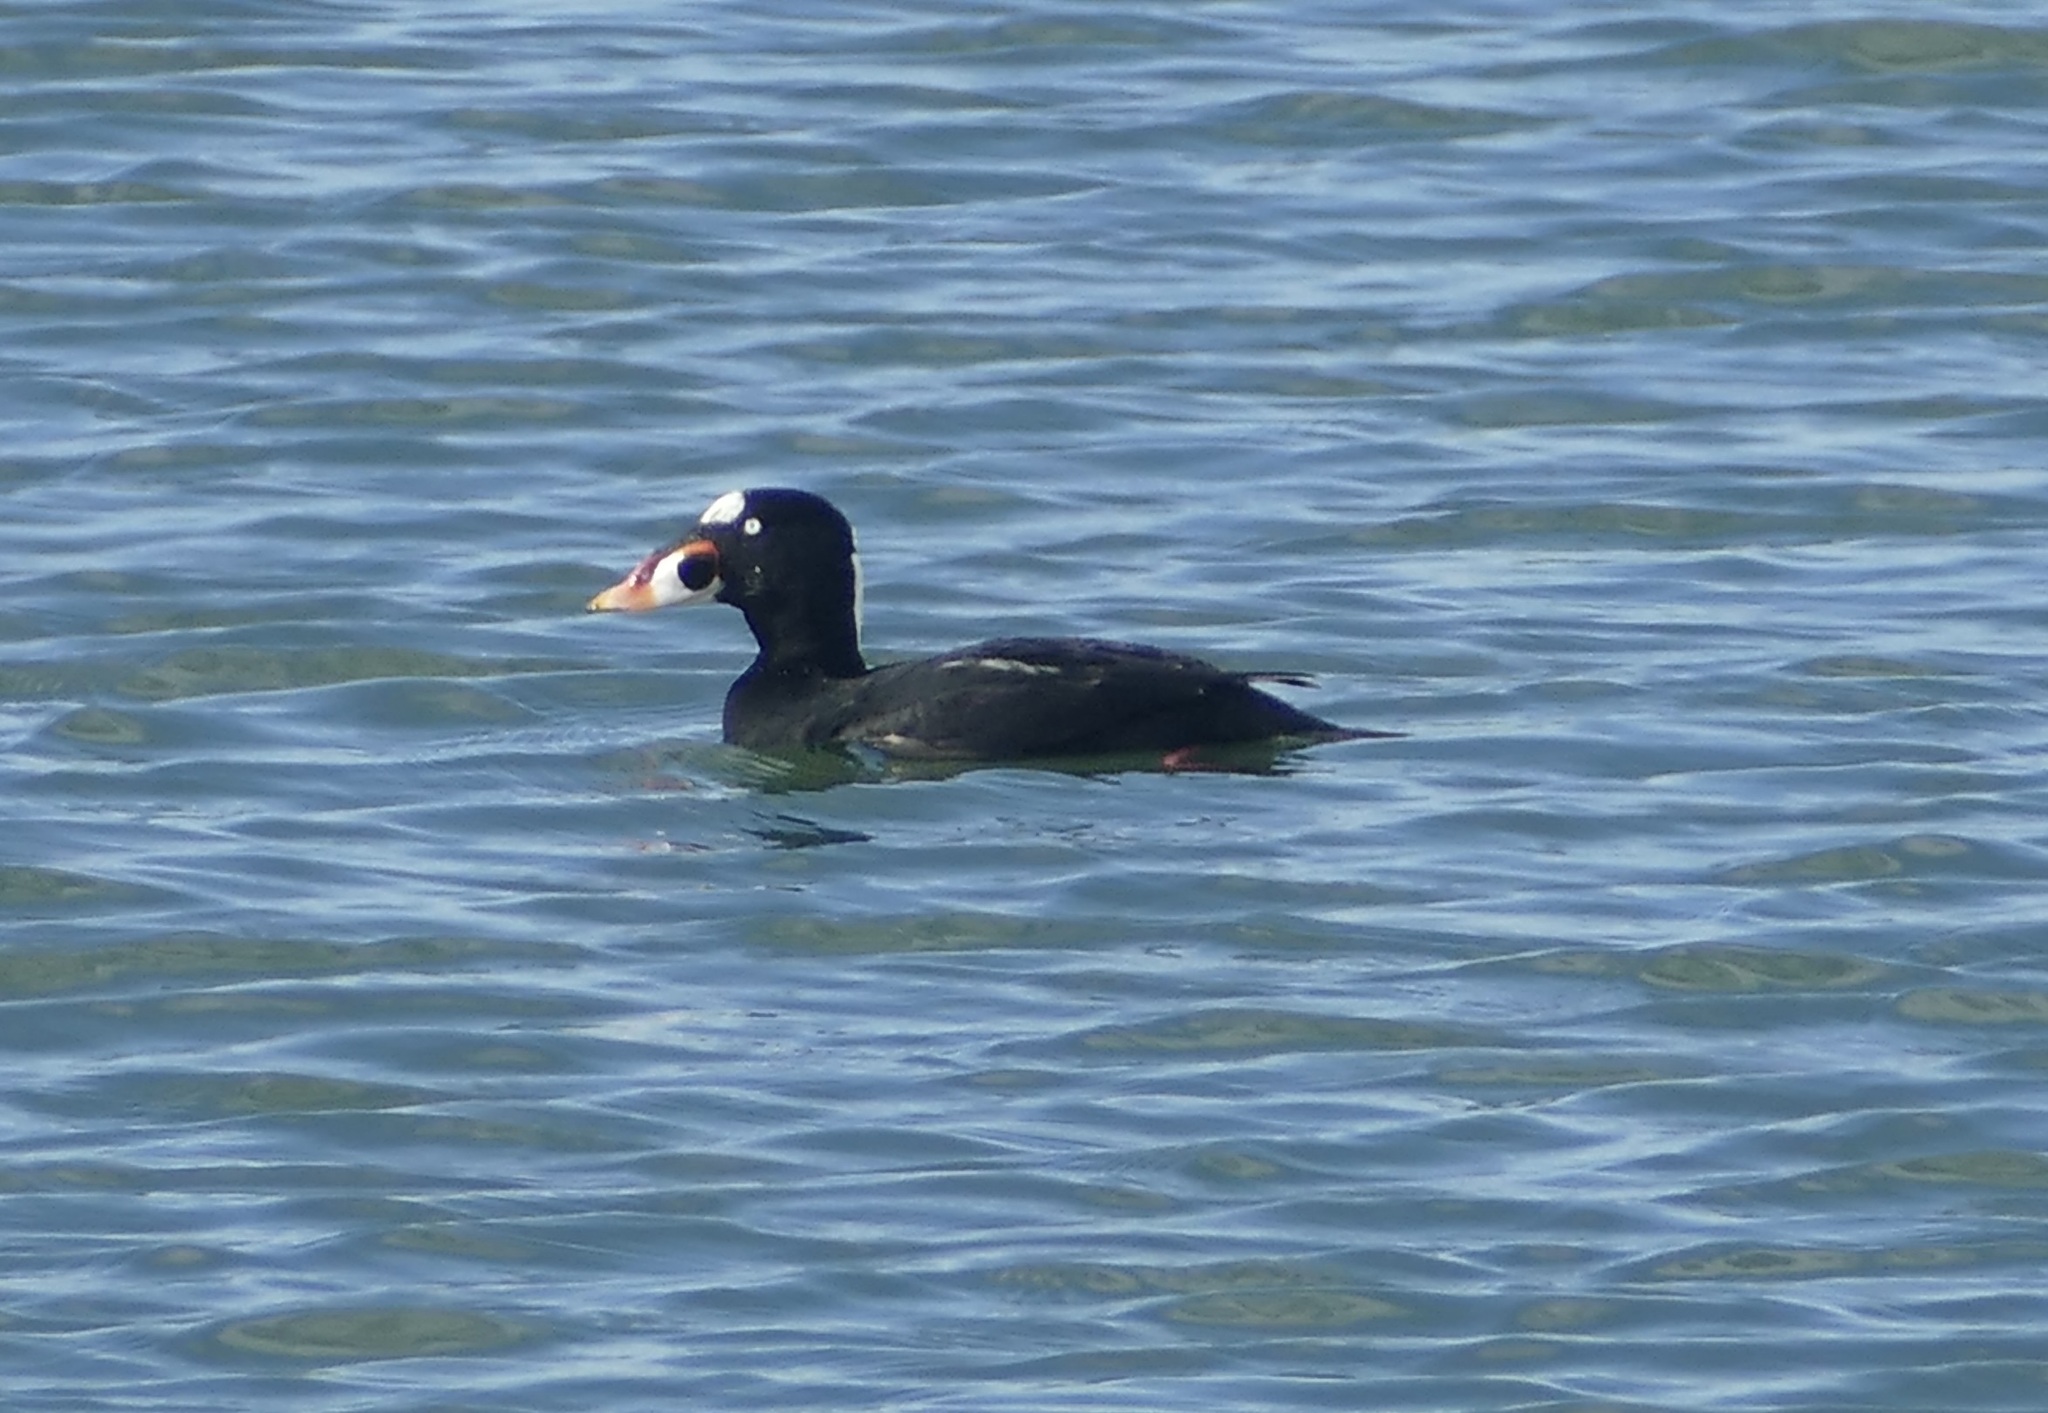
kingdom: Animalia
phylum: Chordata
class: Aves
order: Anseriformes
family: Anatidae
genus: Melanitta
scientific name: Melanitta perspicillata
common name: Surf scoter
